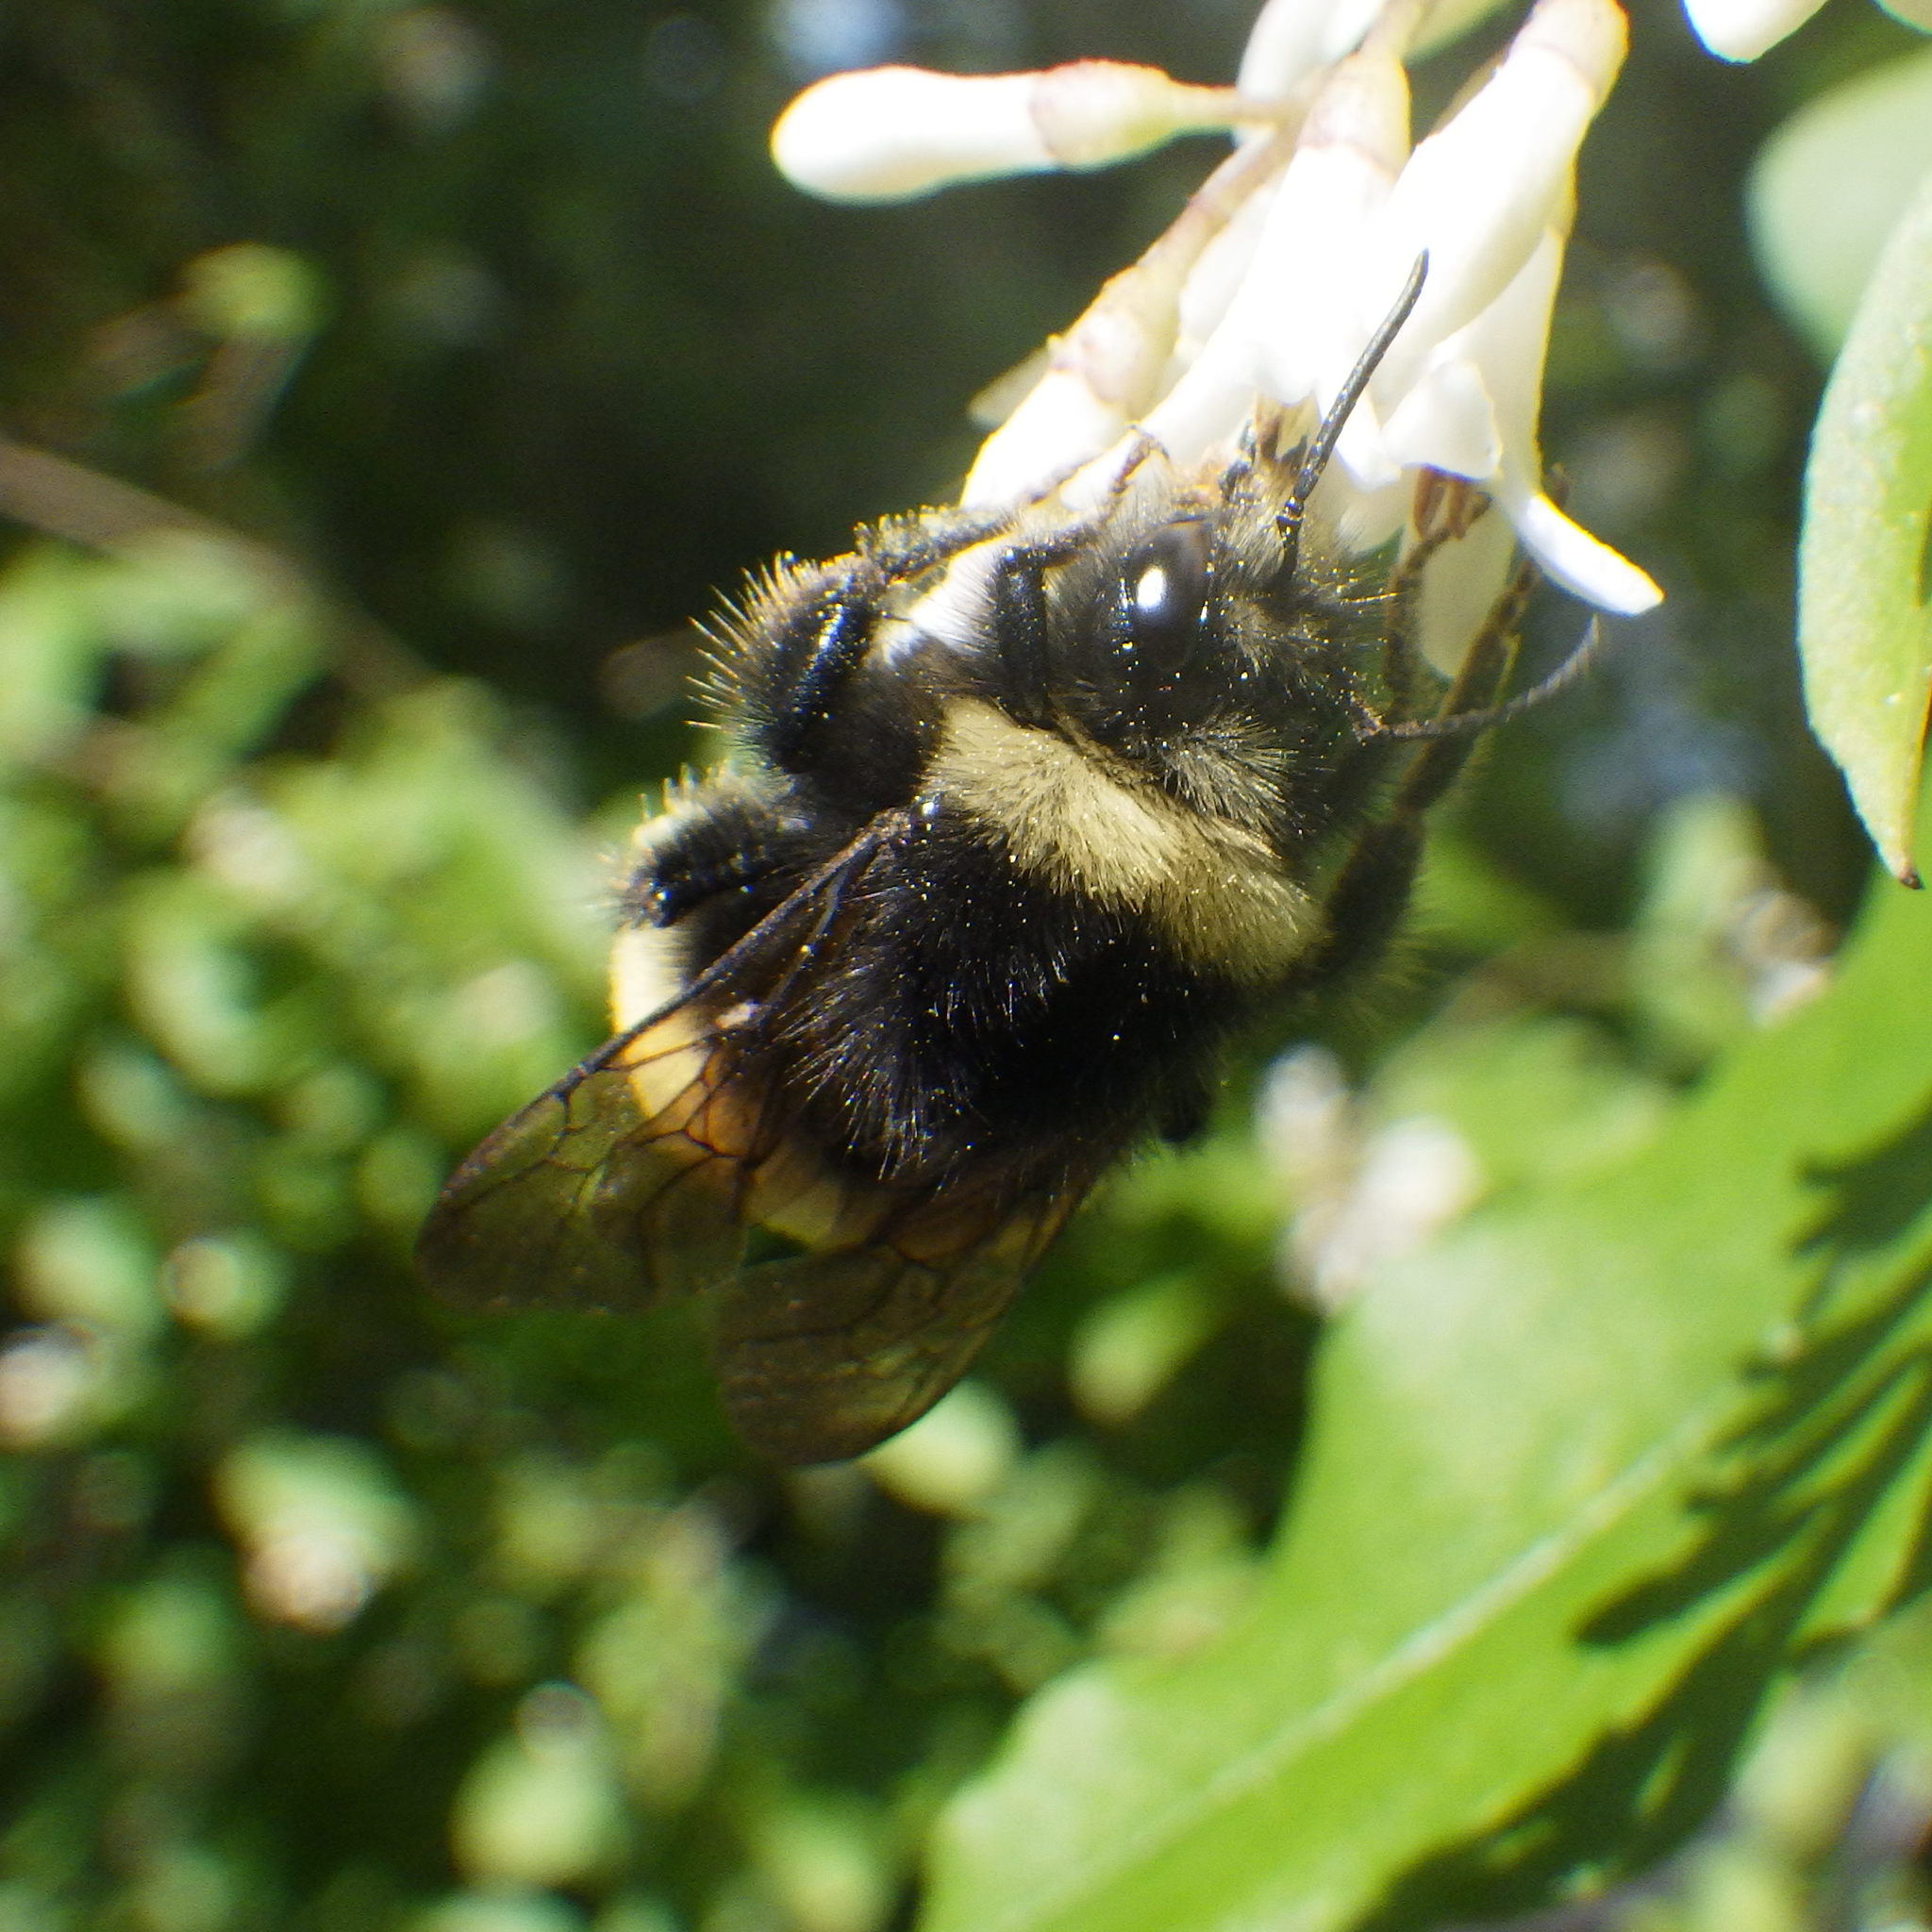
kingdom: Animalia
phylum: Arthropoda
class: Insecta
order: Hymenoptera
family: Apidae
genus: Bombus
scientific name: Bombus terricola
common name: Yellow-banded bumble bee
